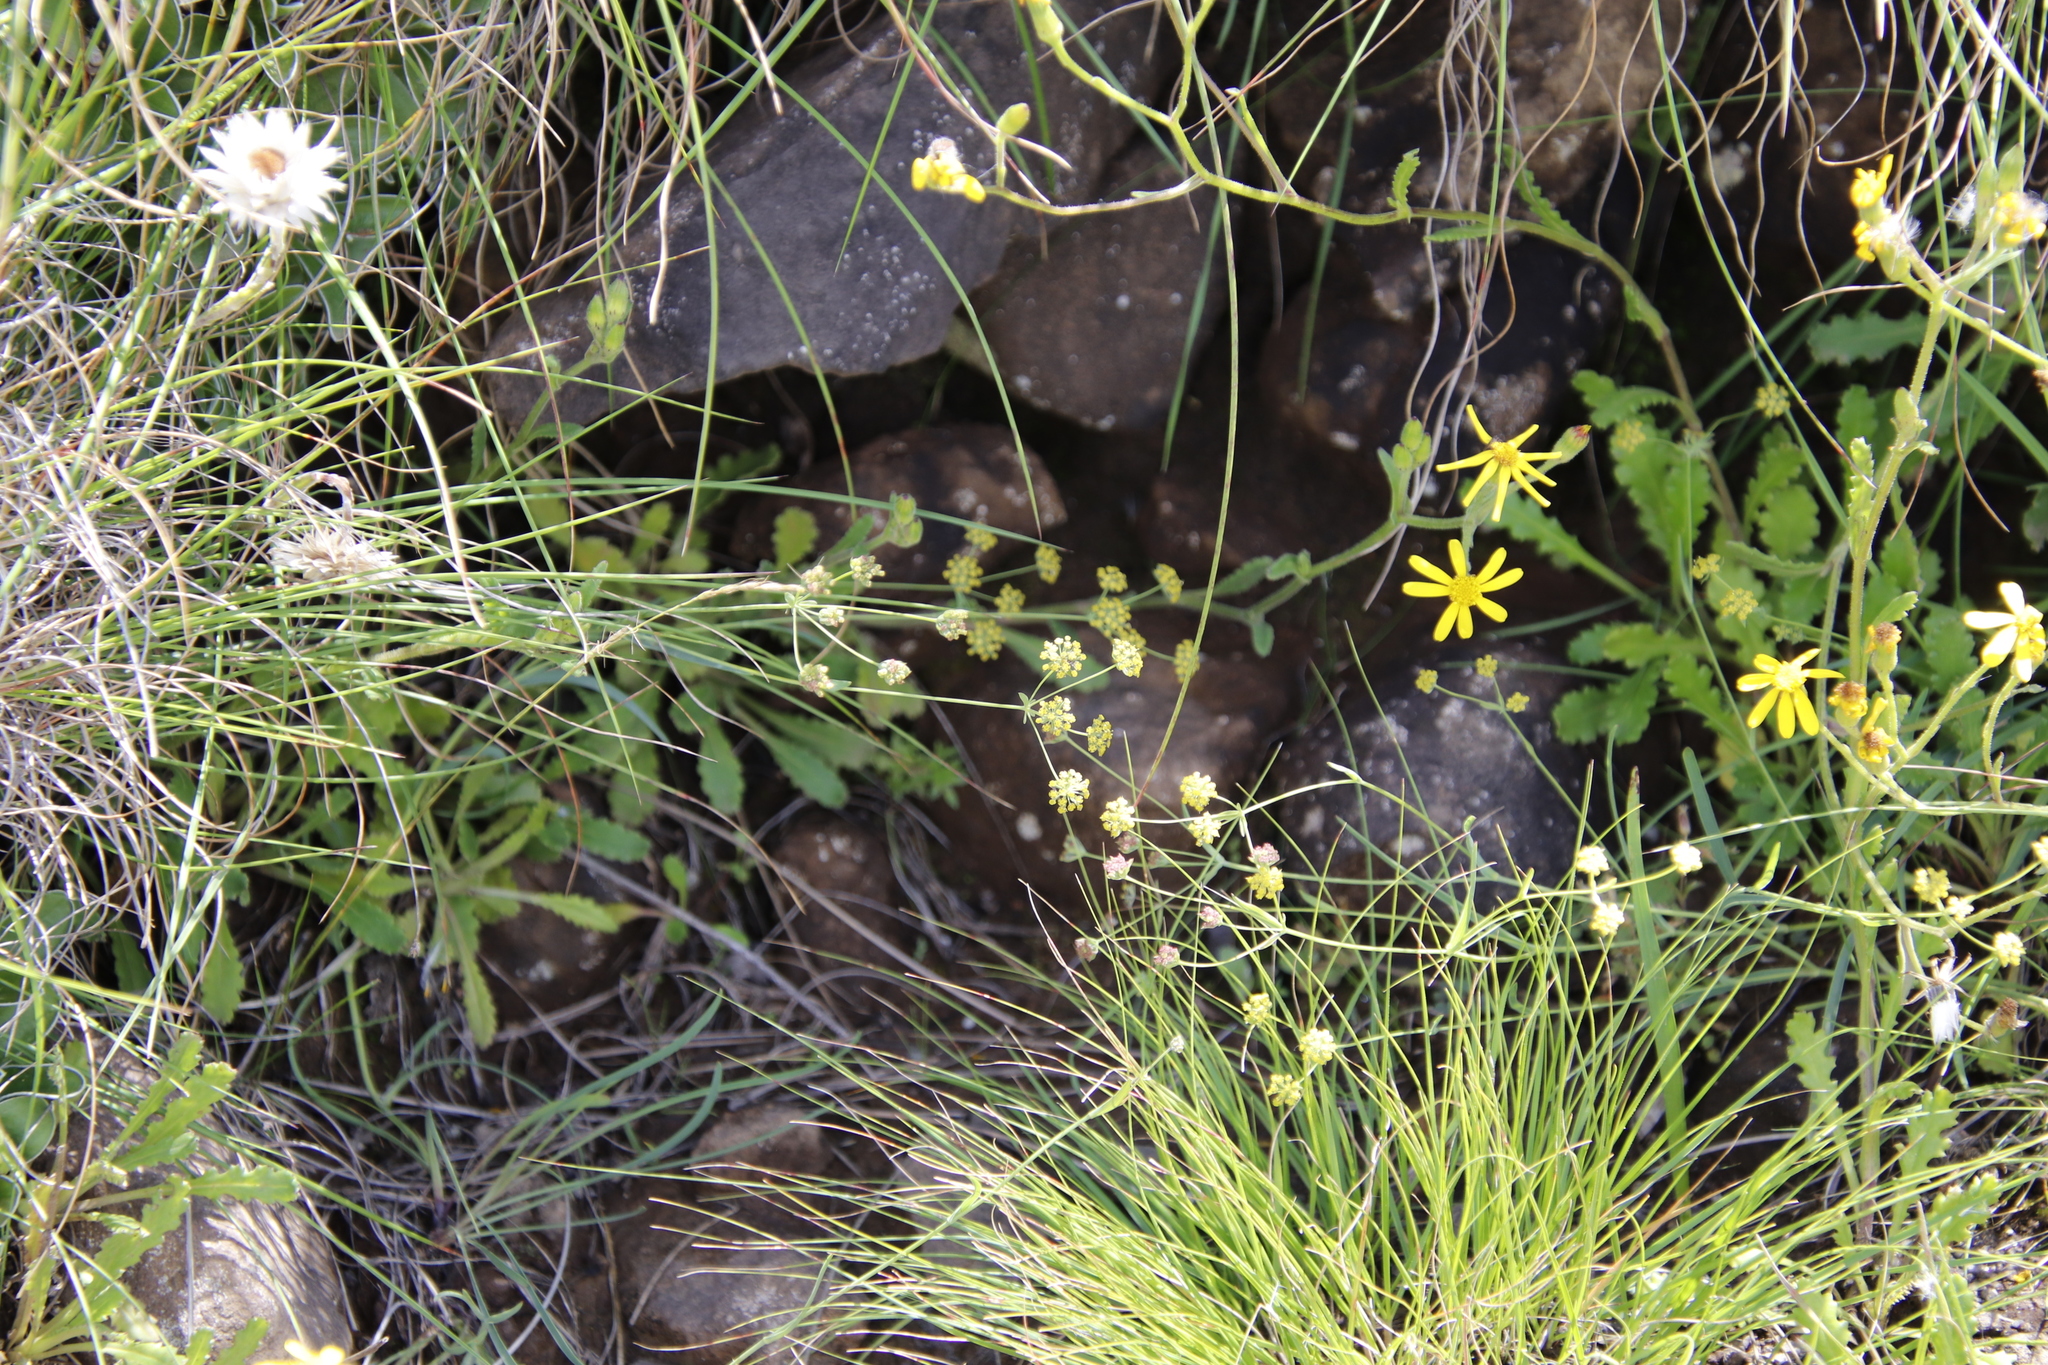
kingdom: Plantae
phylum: Tracheophyta
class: Magnoliopsida
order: Apiales
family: Apiaceae
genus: Bupleurum
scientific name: Bupleurum mundii
